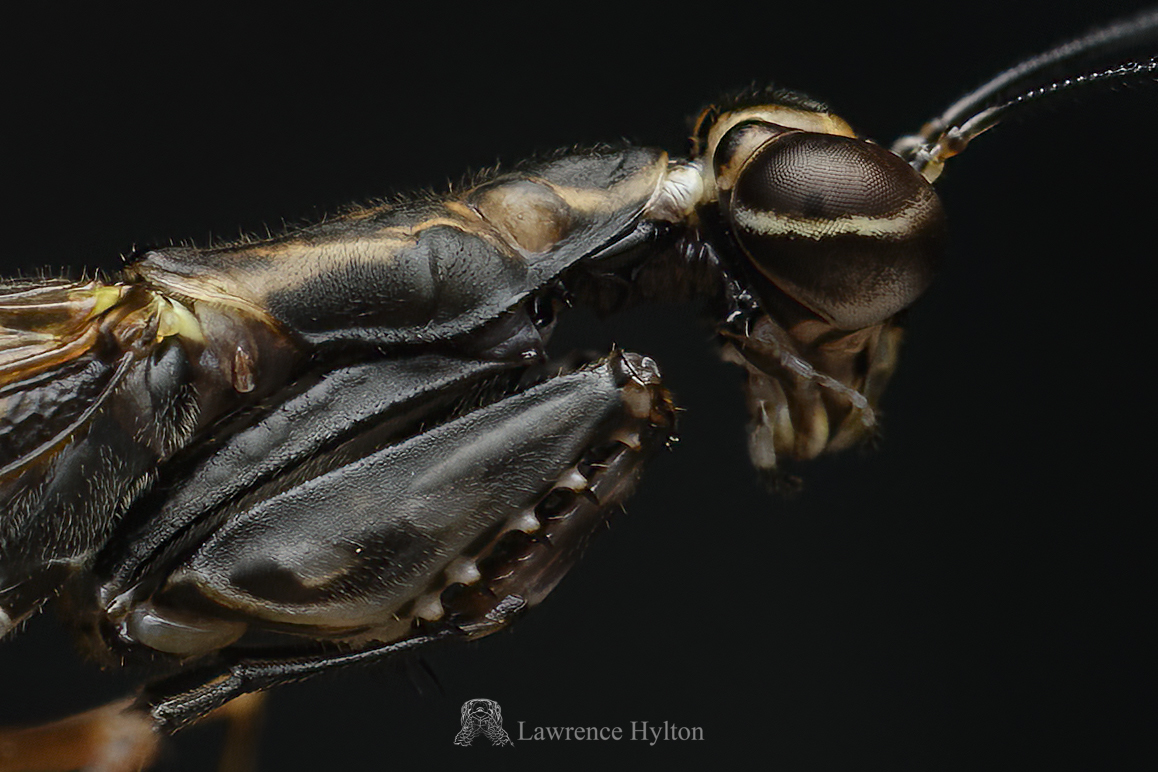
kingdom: Animalia
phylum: Arthropoda
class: Insecta
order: Mantodea
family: Gonypetidae
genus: Spilomantis
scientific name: Spilomantis occipitalis
